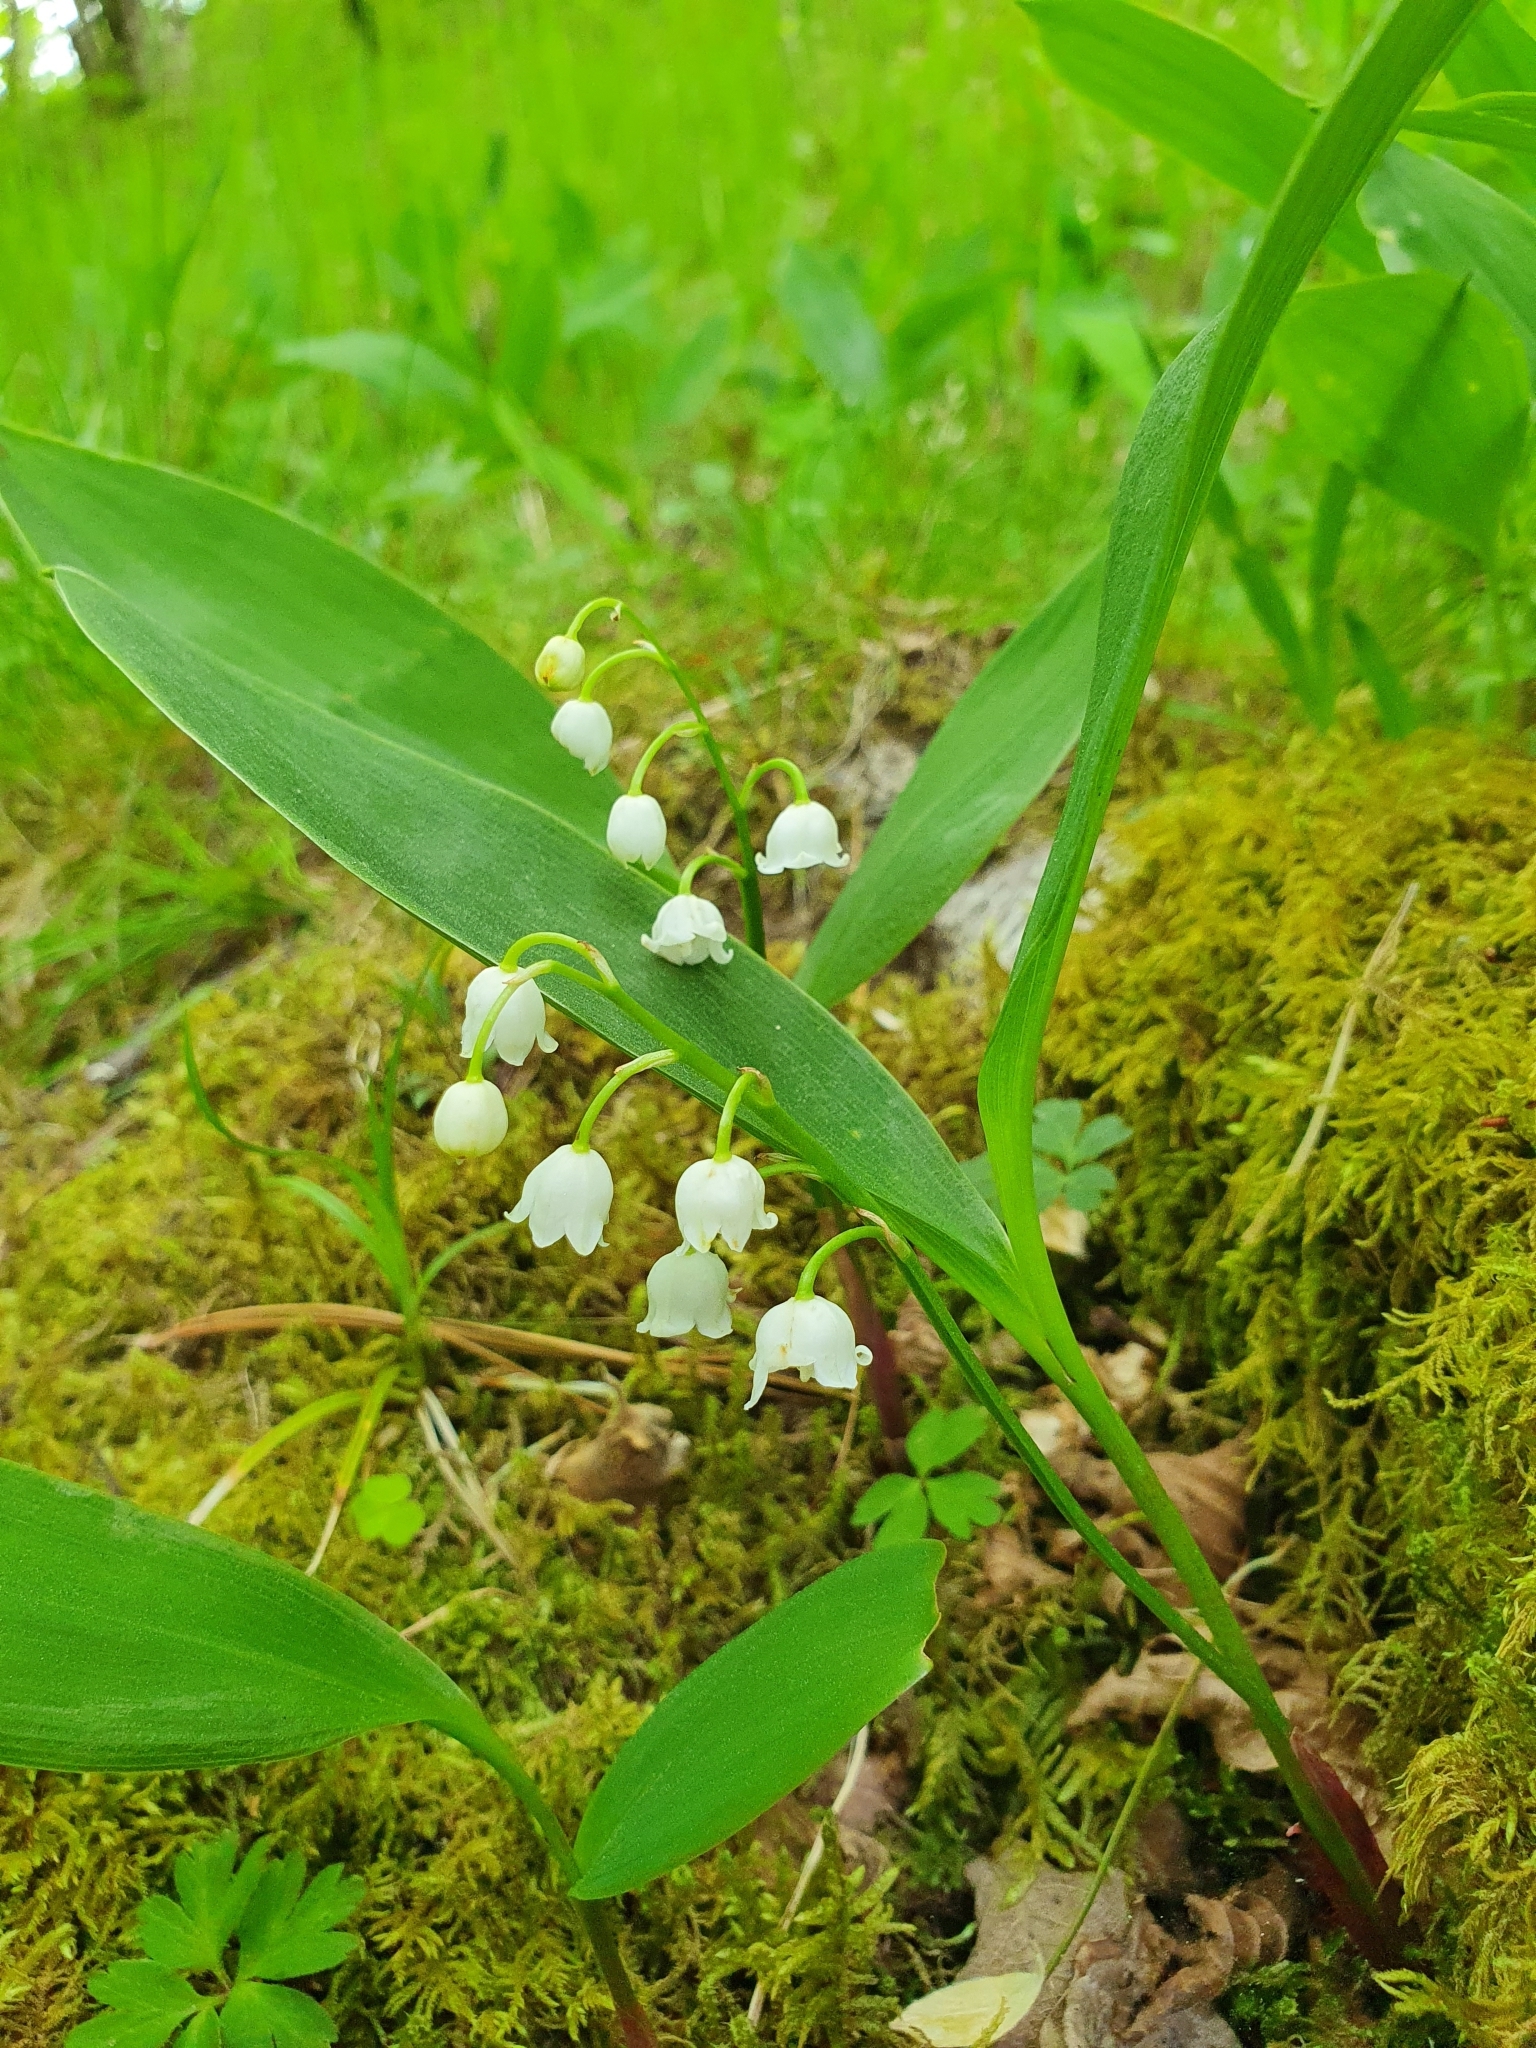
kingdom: Plantae
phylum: Tracheophyta
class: Liliopsida
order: Asparagales
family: Asparagaceae
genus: Convallaria
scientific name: Convallaria majalis
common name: Lily-of-the-valley
